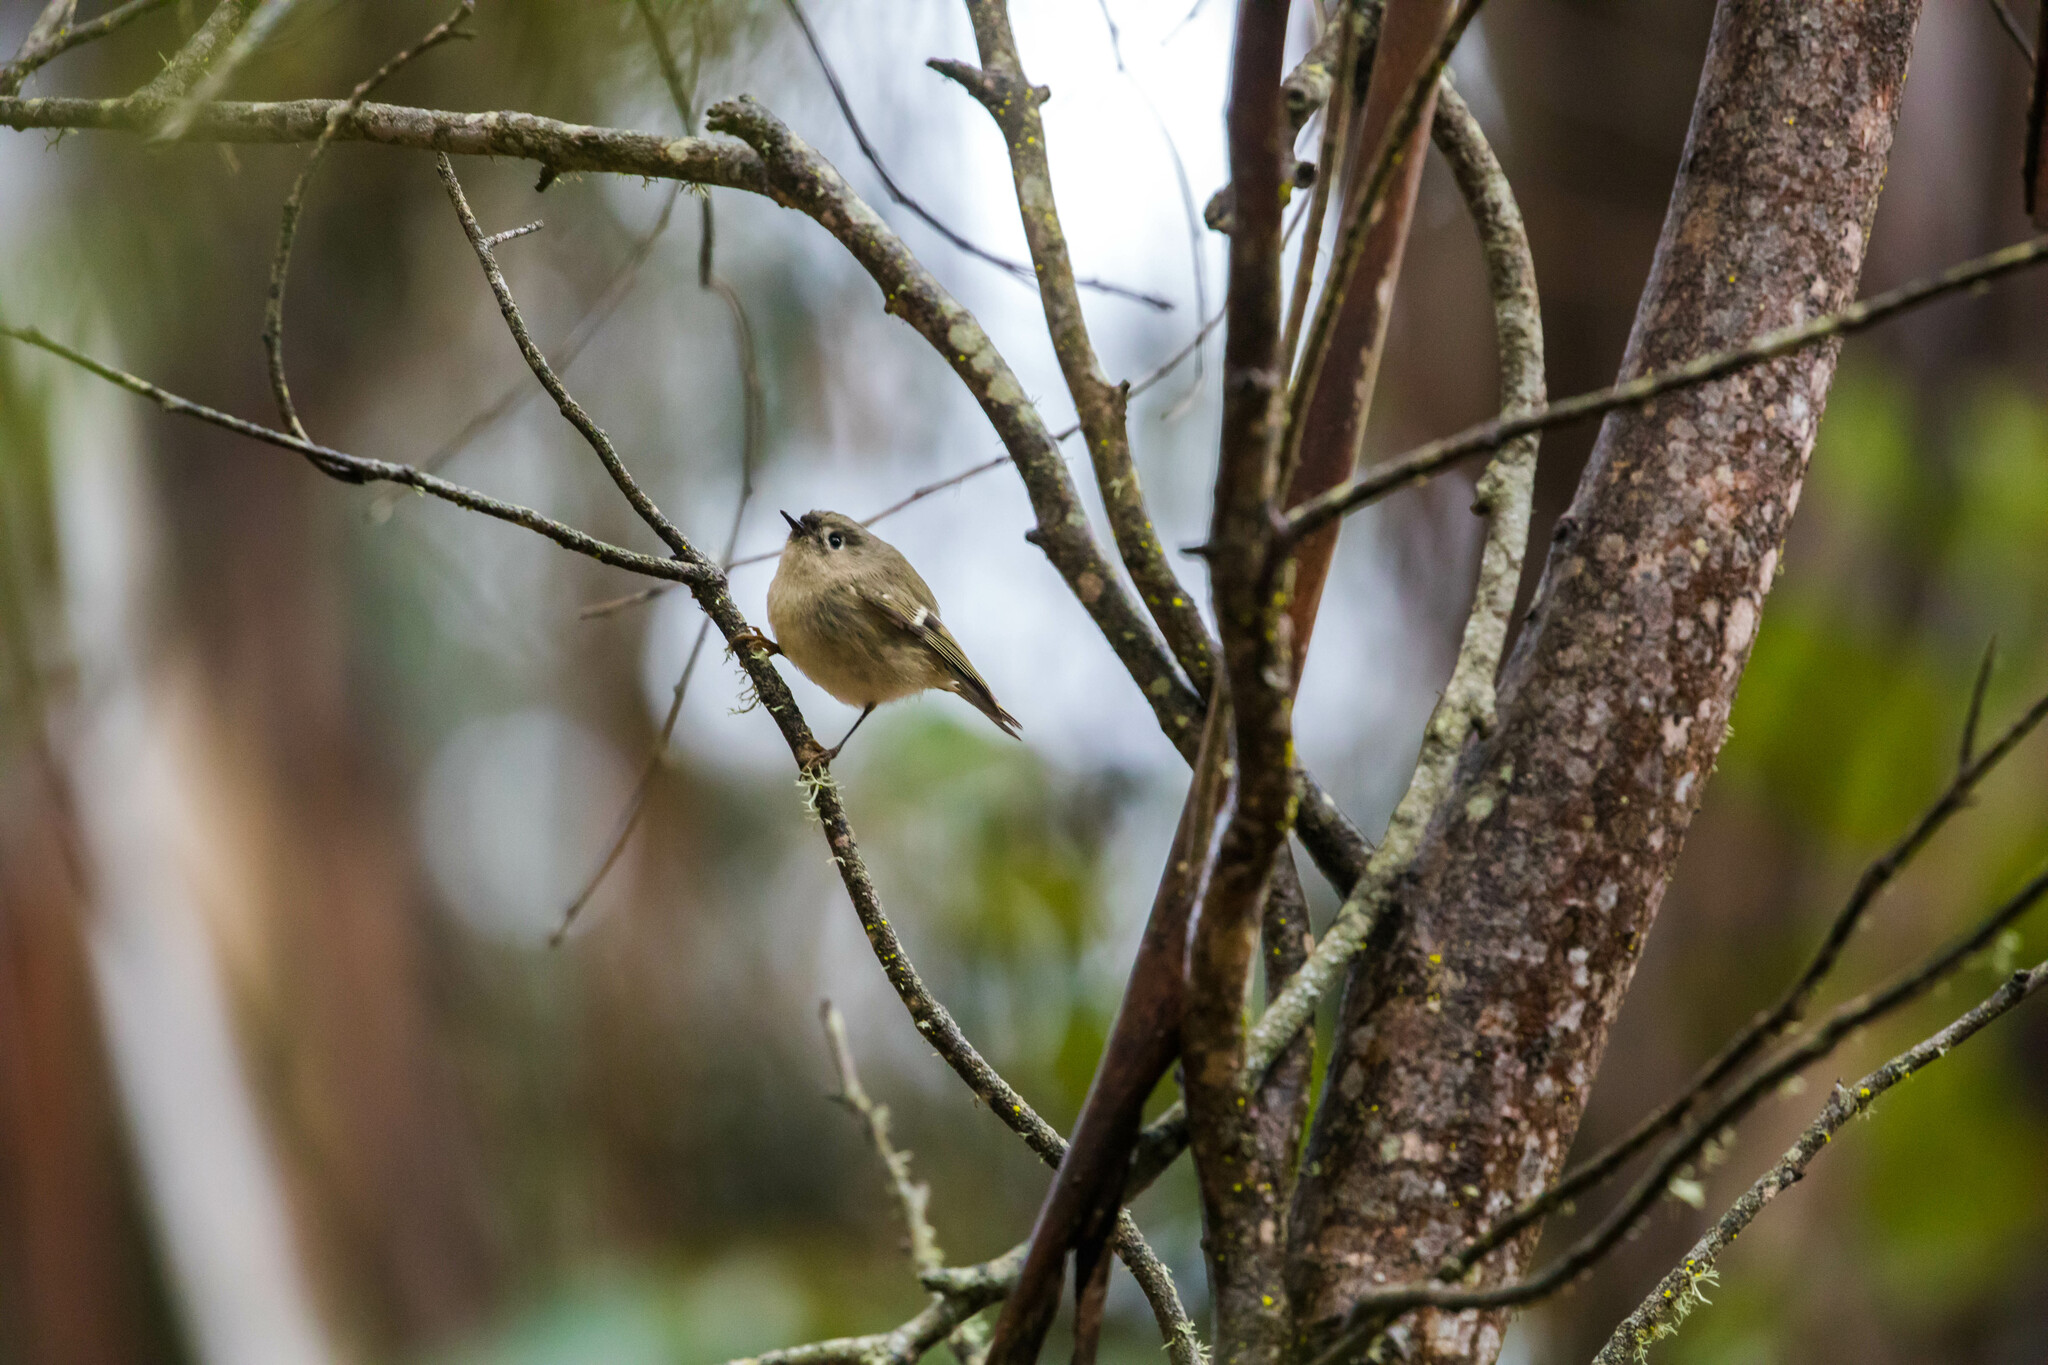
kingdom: Animalia
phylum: Chordata
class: Aves
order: Passeriformes
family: Regulidae
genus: Regulus
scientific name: Regulus calendula
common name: Ruby-crowned kinglet
